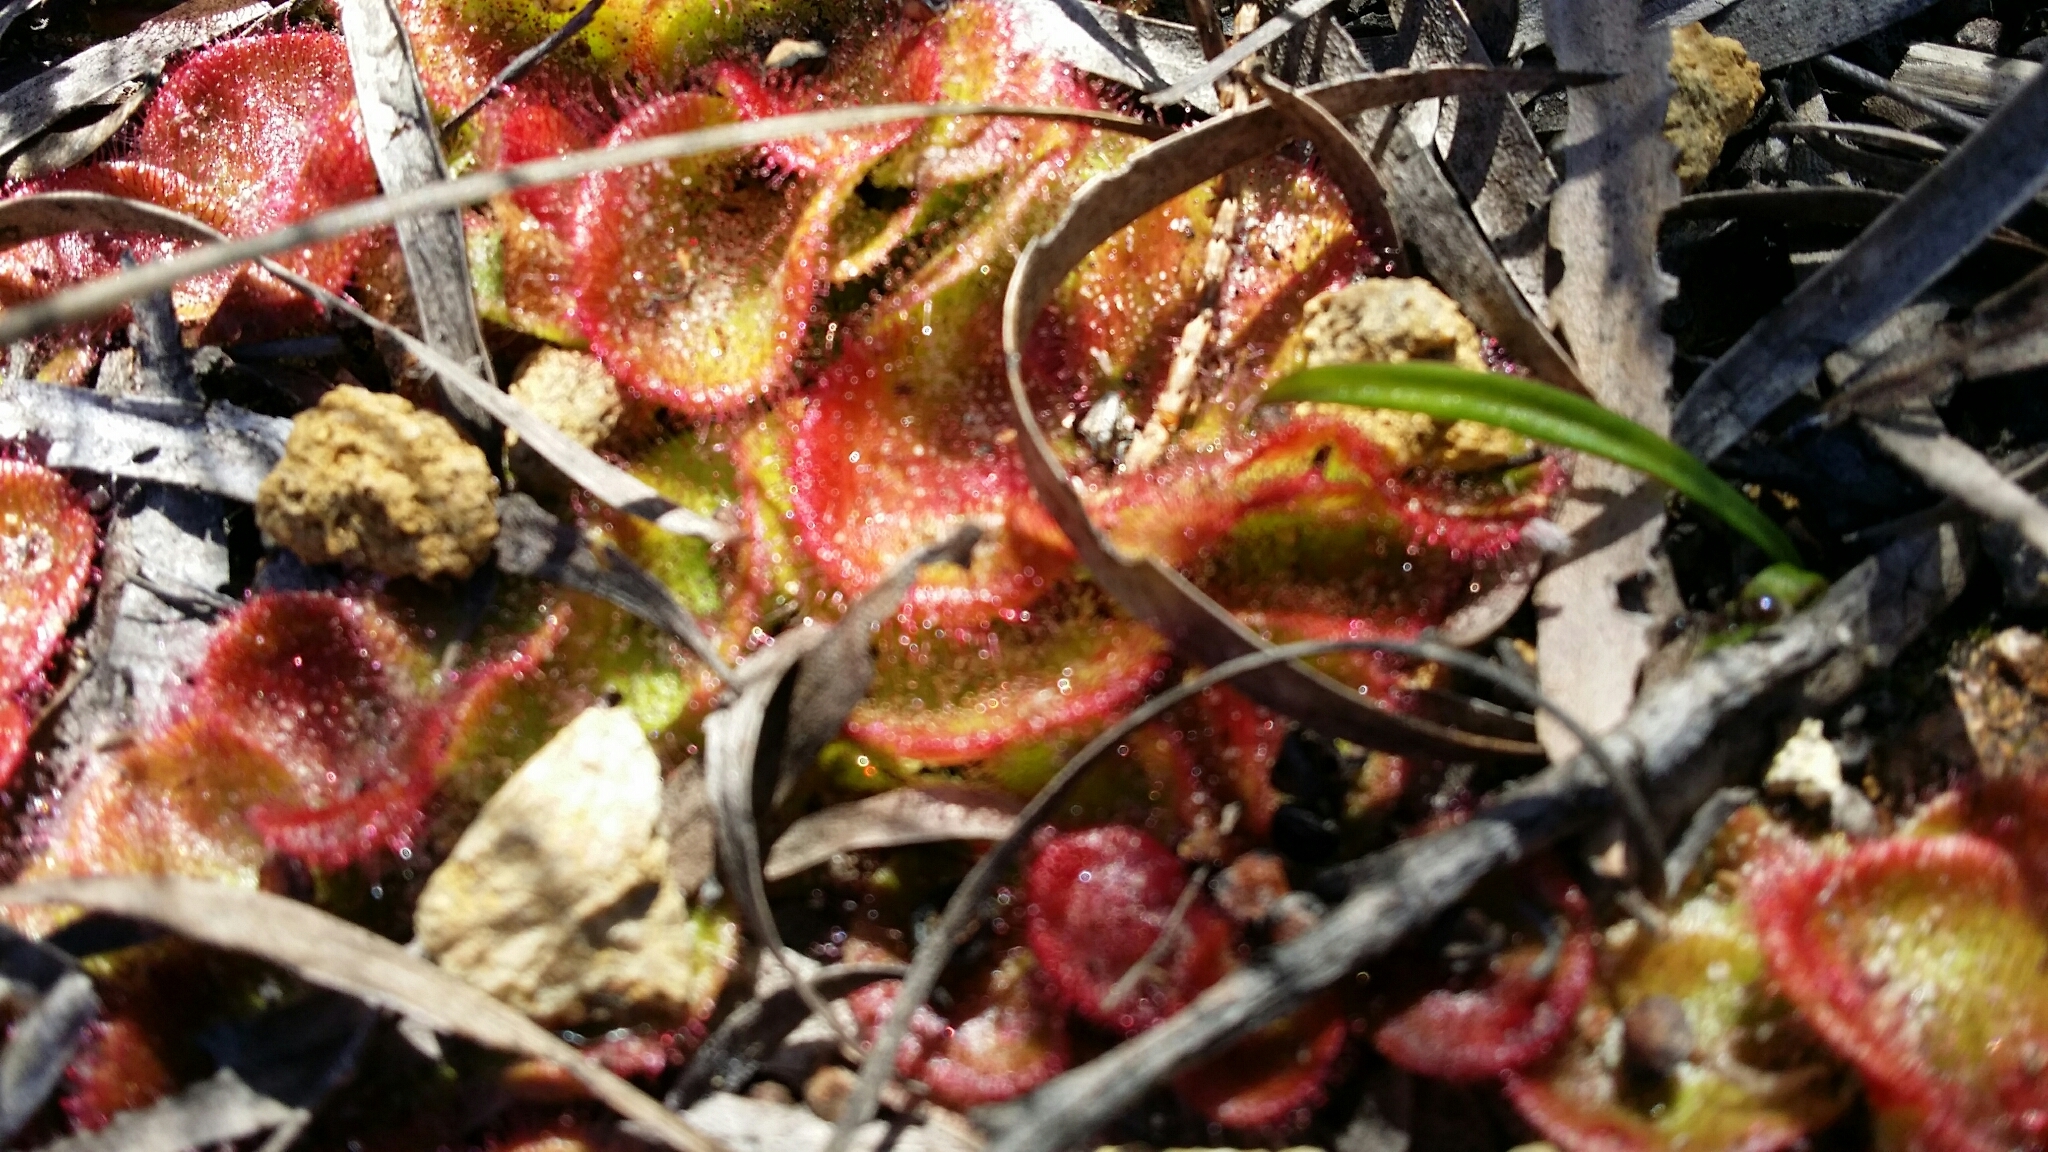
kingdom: Plantae
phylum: Tracheophyta
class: Magnoliopsida
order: Caryophyllales
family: Droseraceae
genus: Drosera
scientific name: Drosera erythrorhiza
